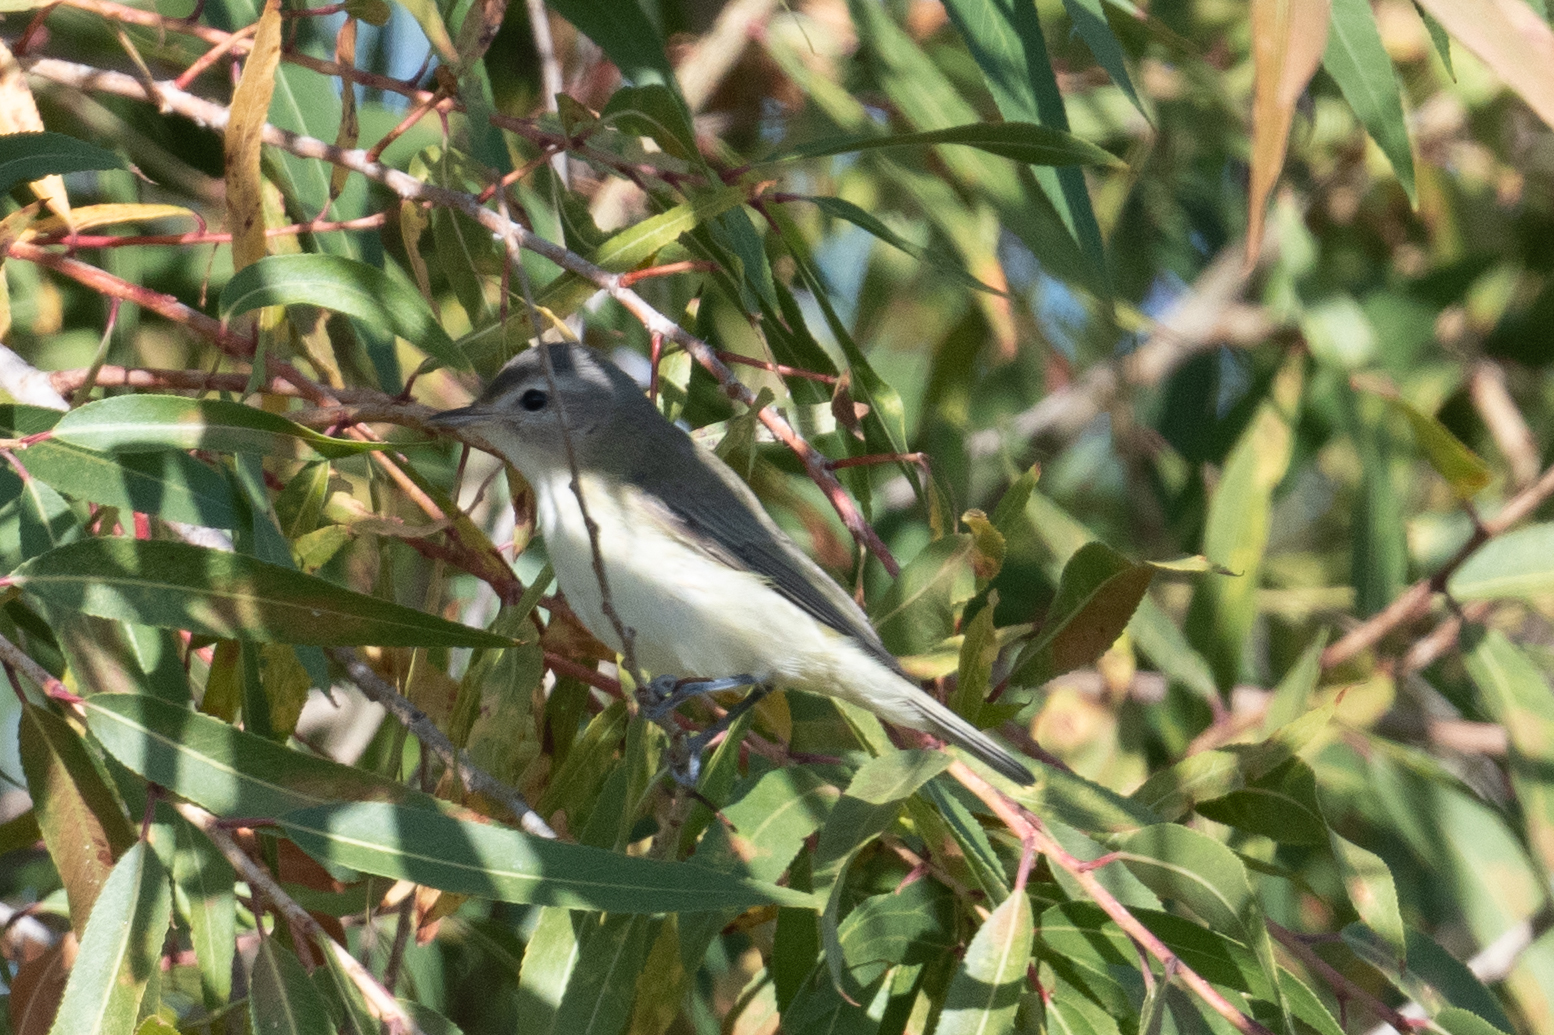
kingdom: Animalia
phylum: Chordata
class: Aves
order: Passeriformes
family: Vireonidae
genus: Vireo
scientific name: Vireo gilvus
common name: Warbling vireo
